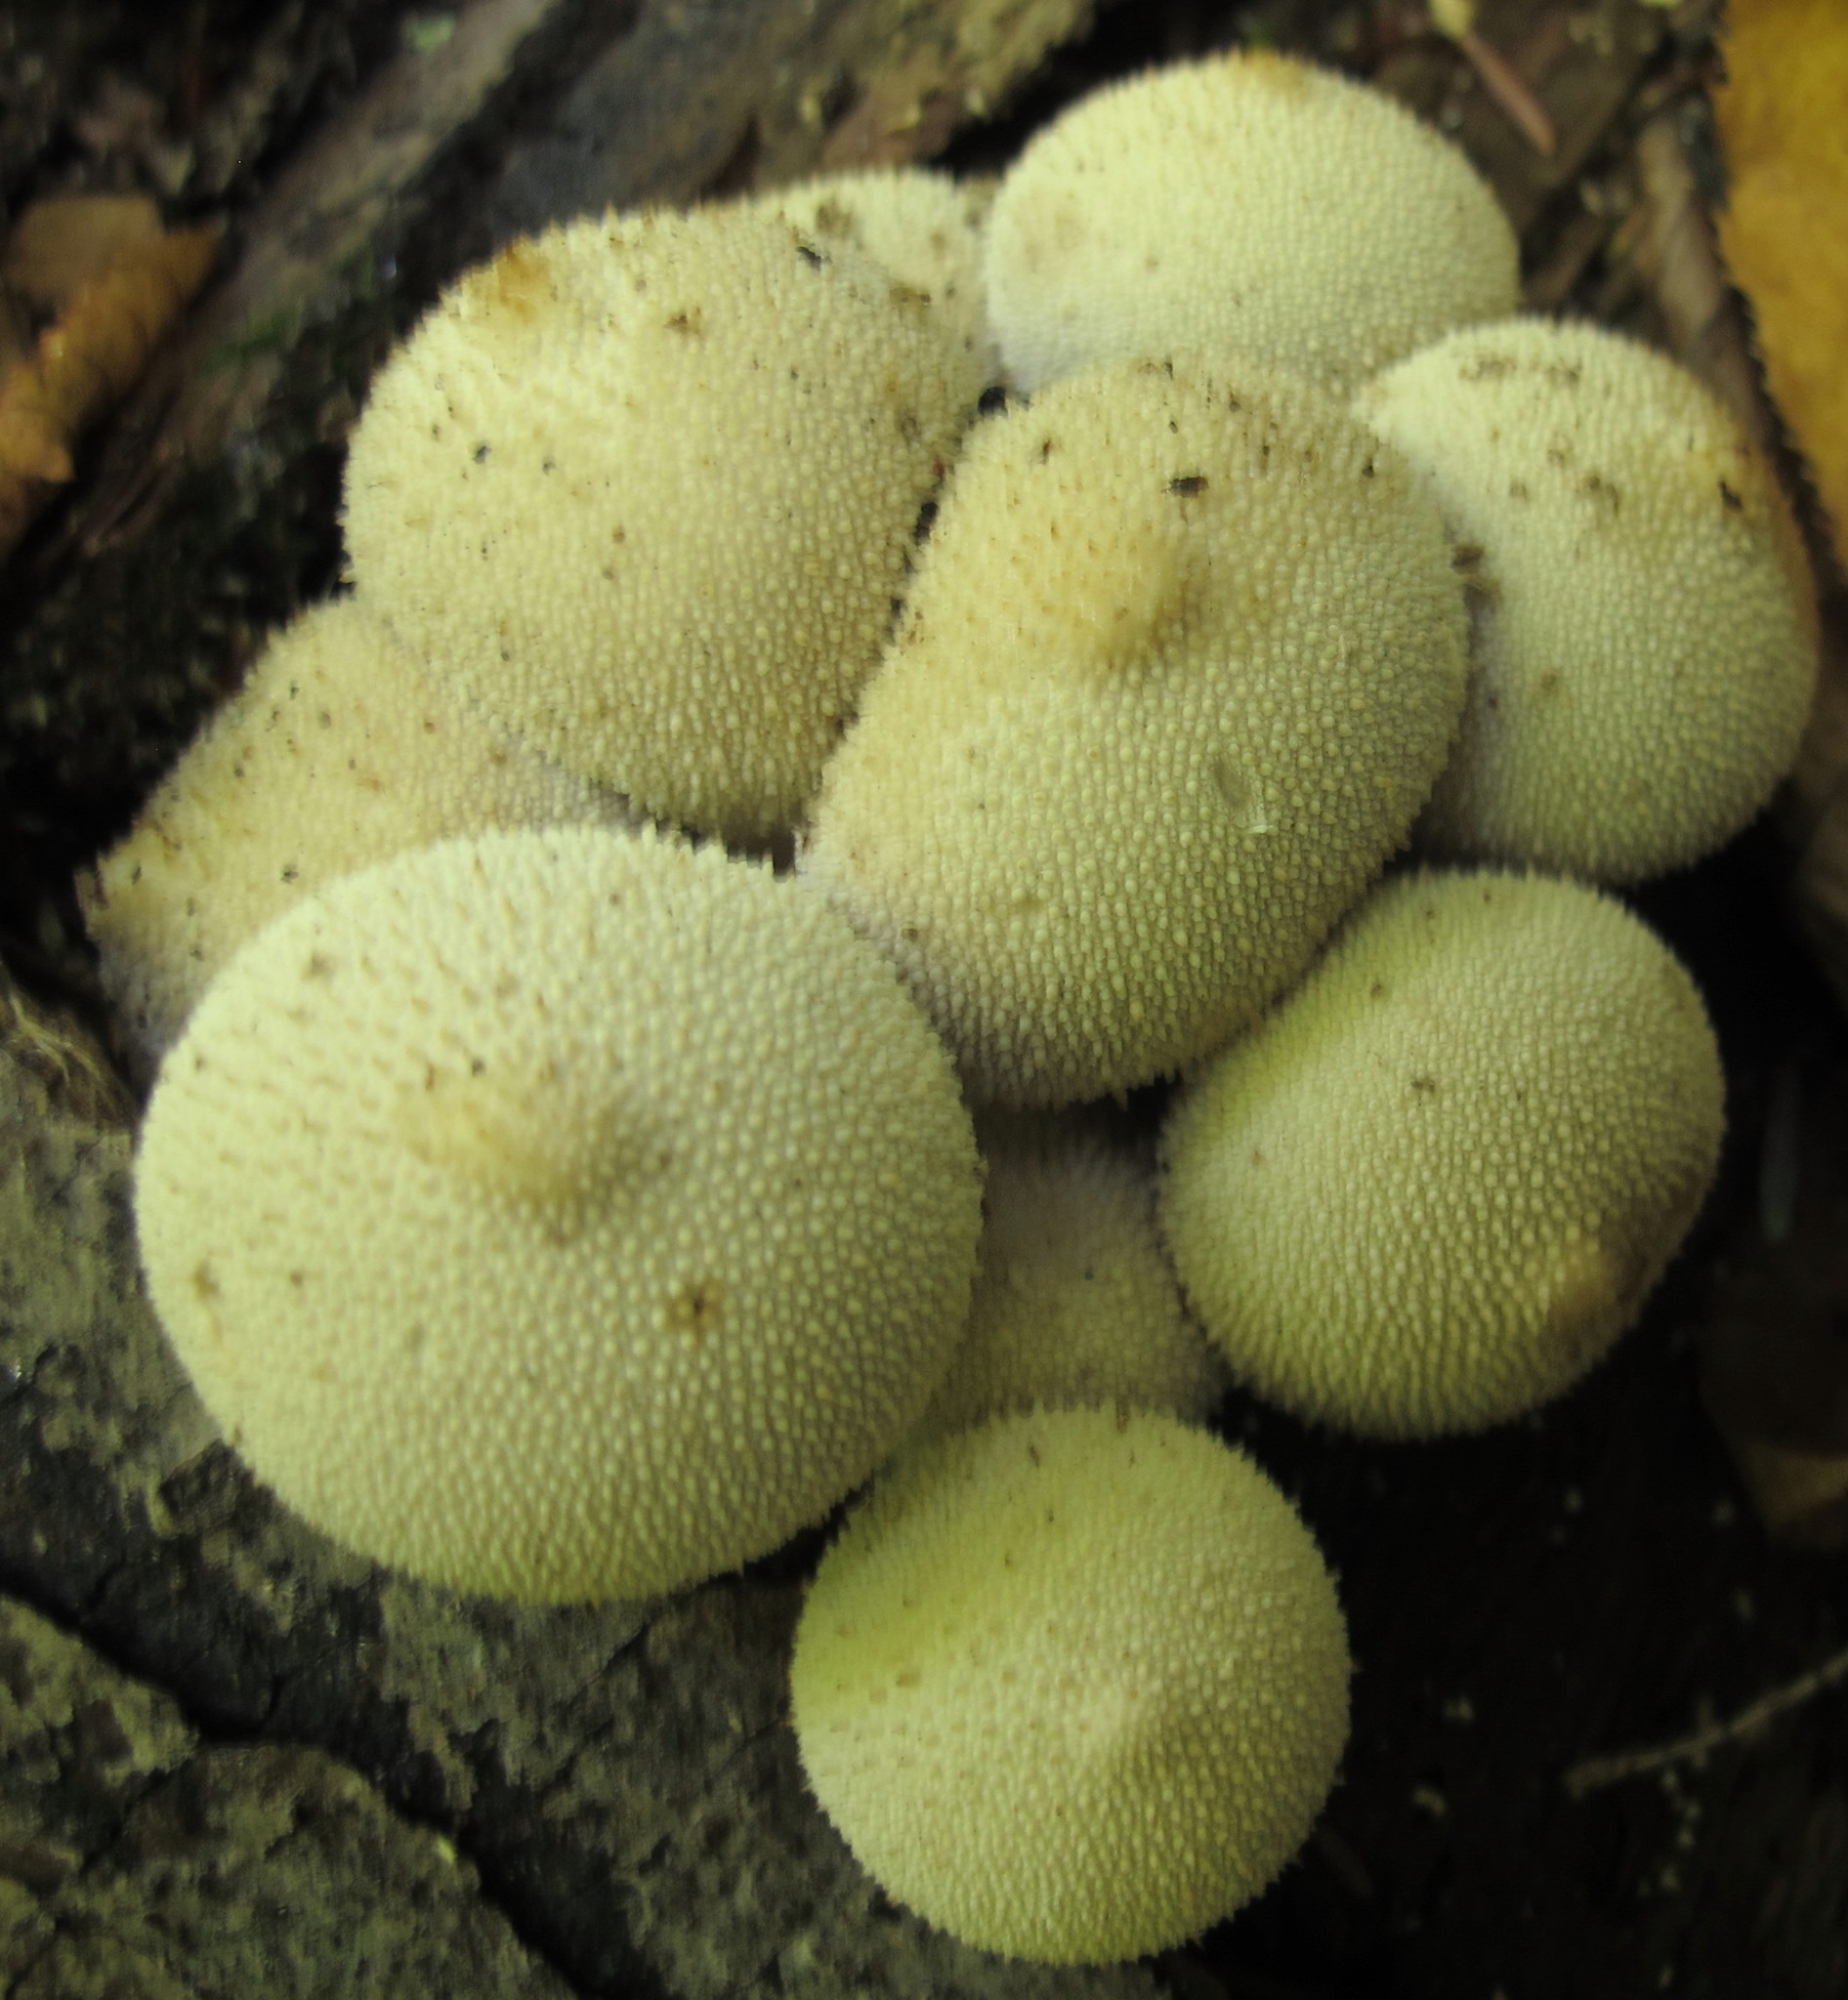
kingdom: Fungi
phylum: Basidiomycota
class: Agaricomycetes
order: Agaricales
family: Lycoperdaceae
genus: Lycoperdon
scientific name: Lycoperdon perlatum
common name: Common puffball
